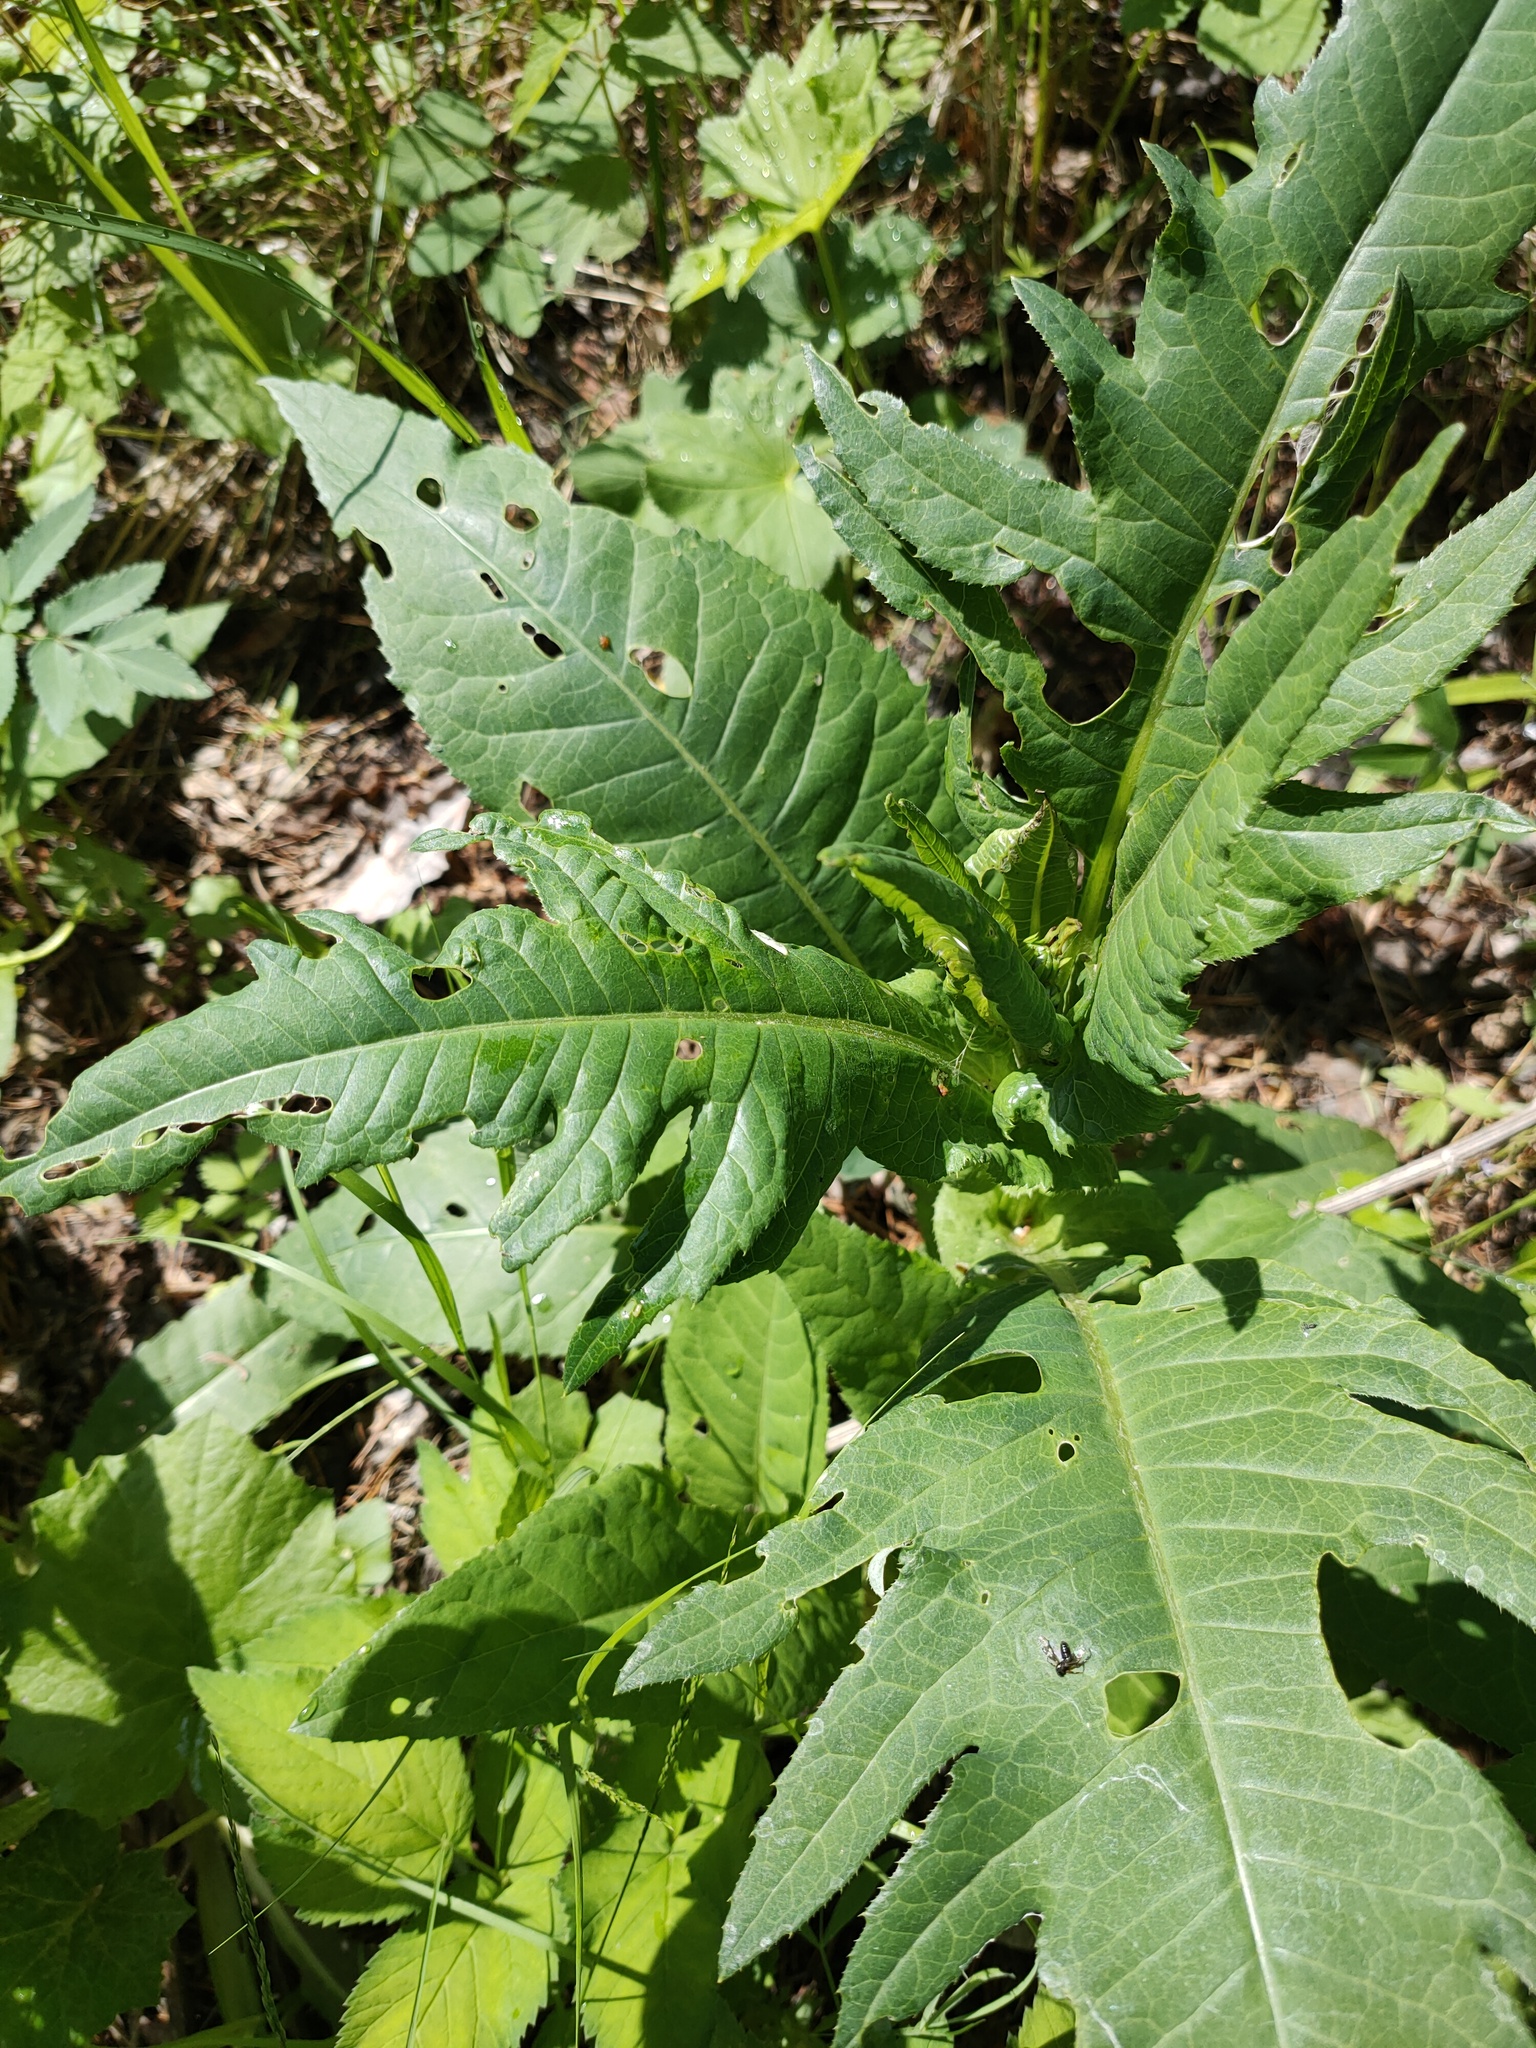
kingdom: Plantae
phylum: Tracheophyta
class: Magnoliopsida
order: Asterales
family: Asteraceae
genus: Cirsium
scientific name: Cirsium heterophyllum
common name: Melancholy thistle
